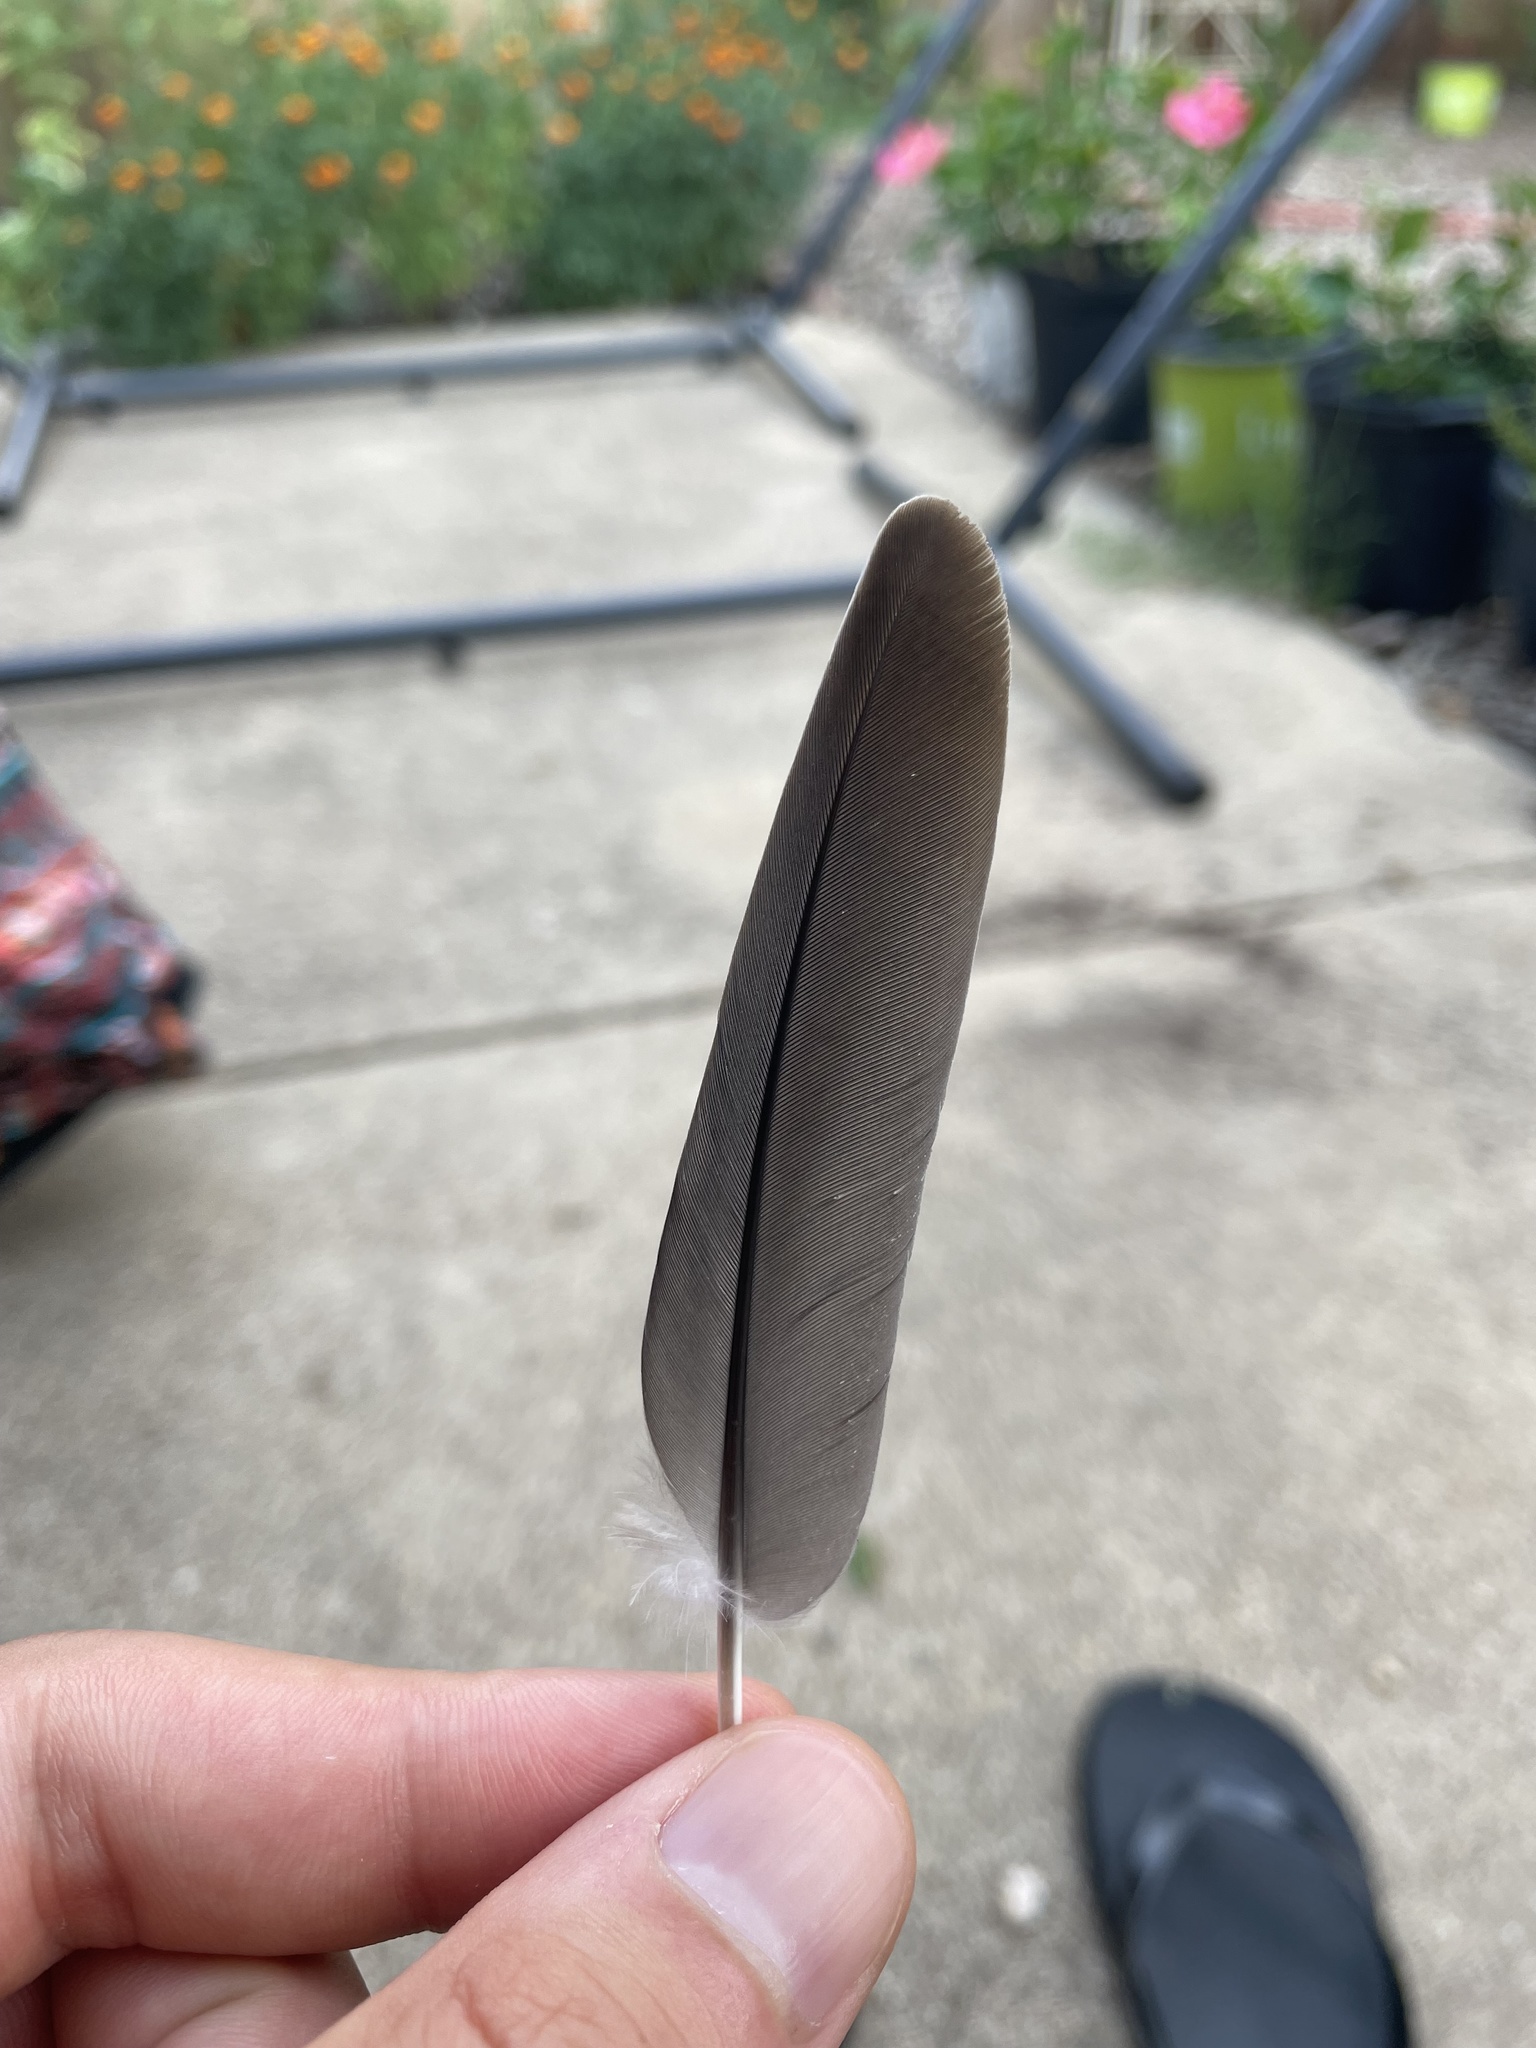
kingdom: Animalia
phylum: Chordata
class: Aves
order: Columbiformes
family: Columbidae
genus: Zenaida
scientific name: Zenaida macroura
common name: Mourning dove
